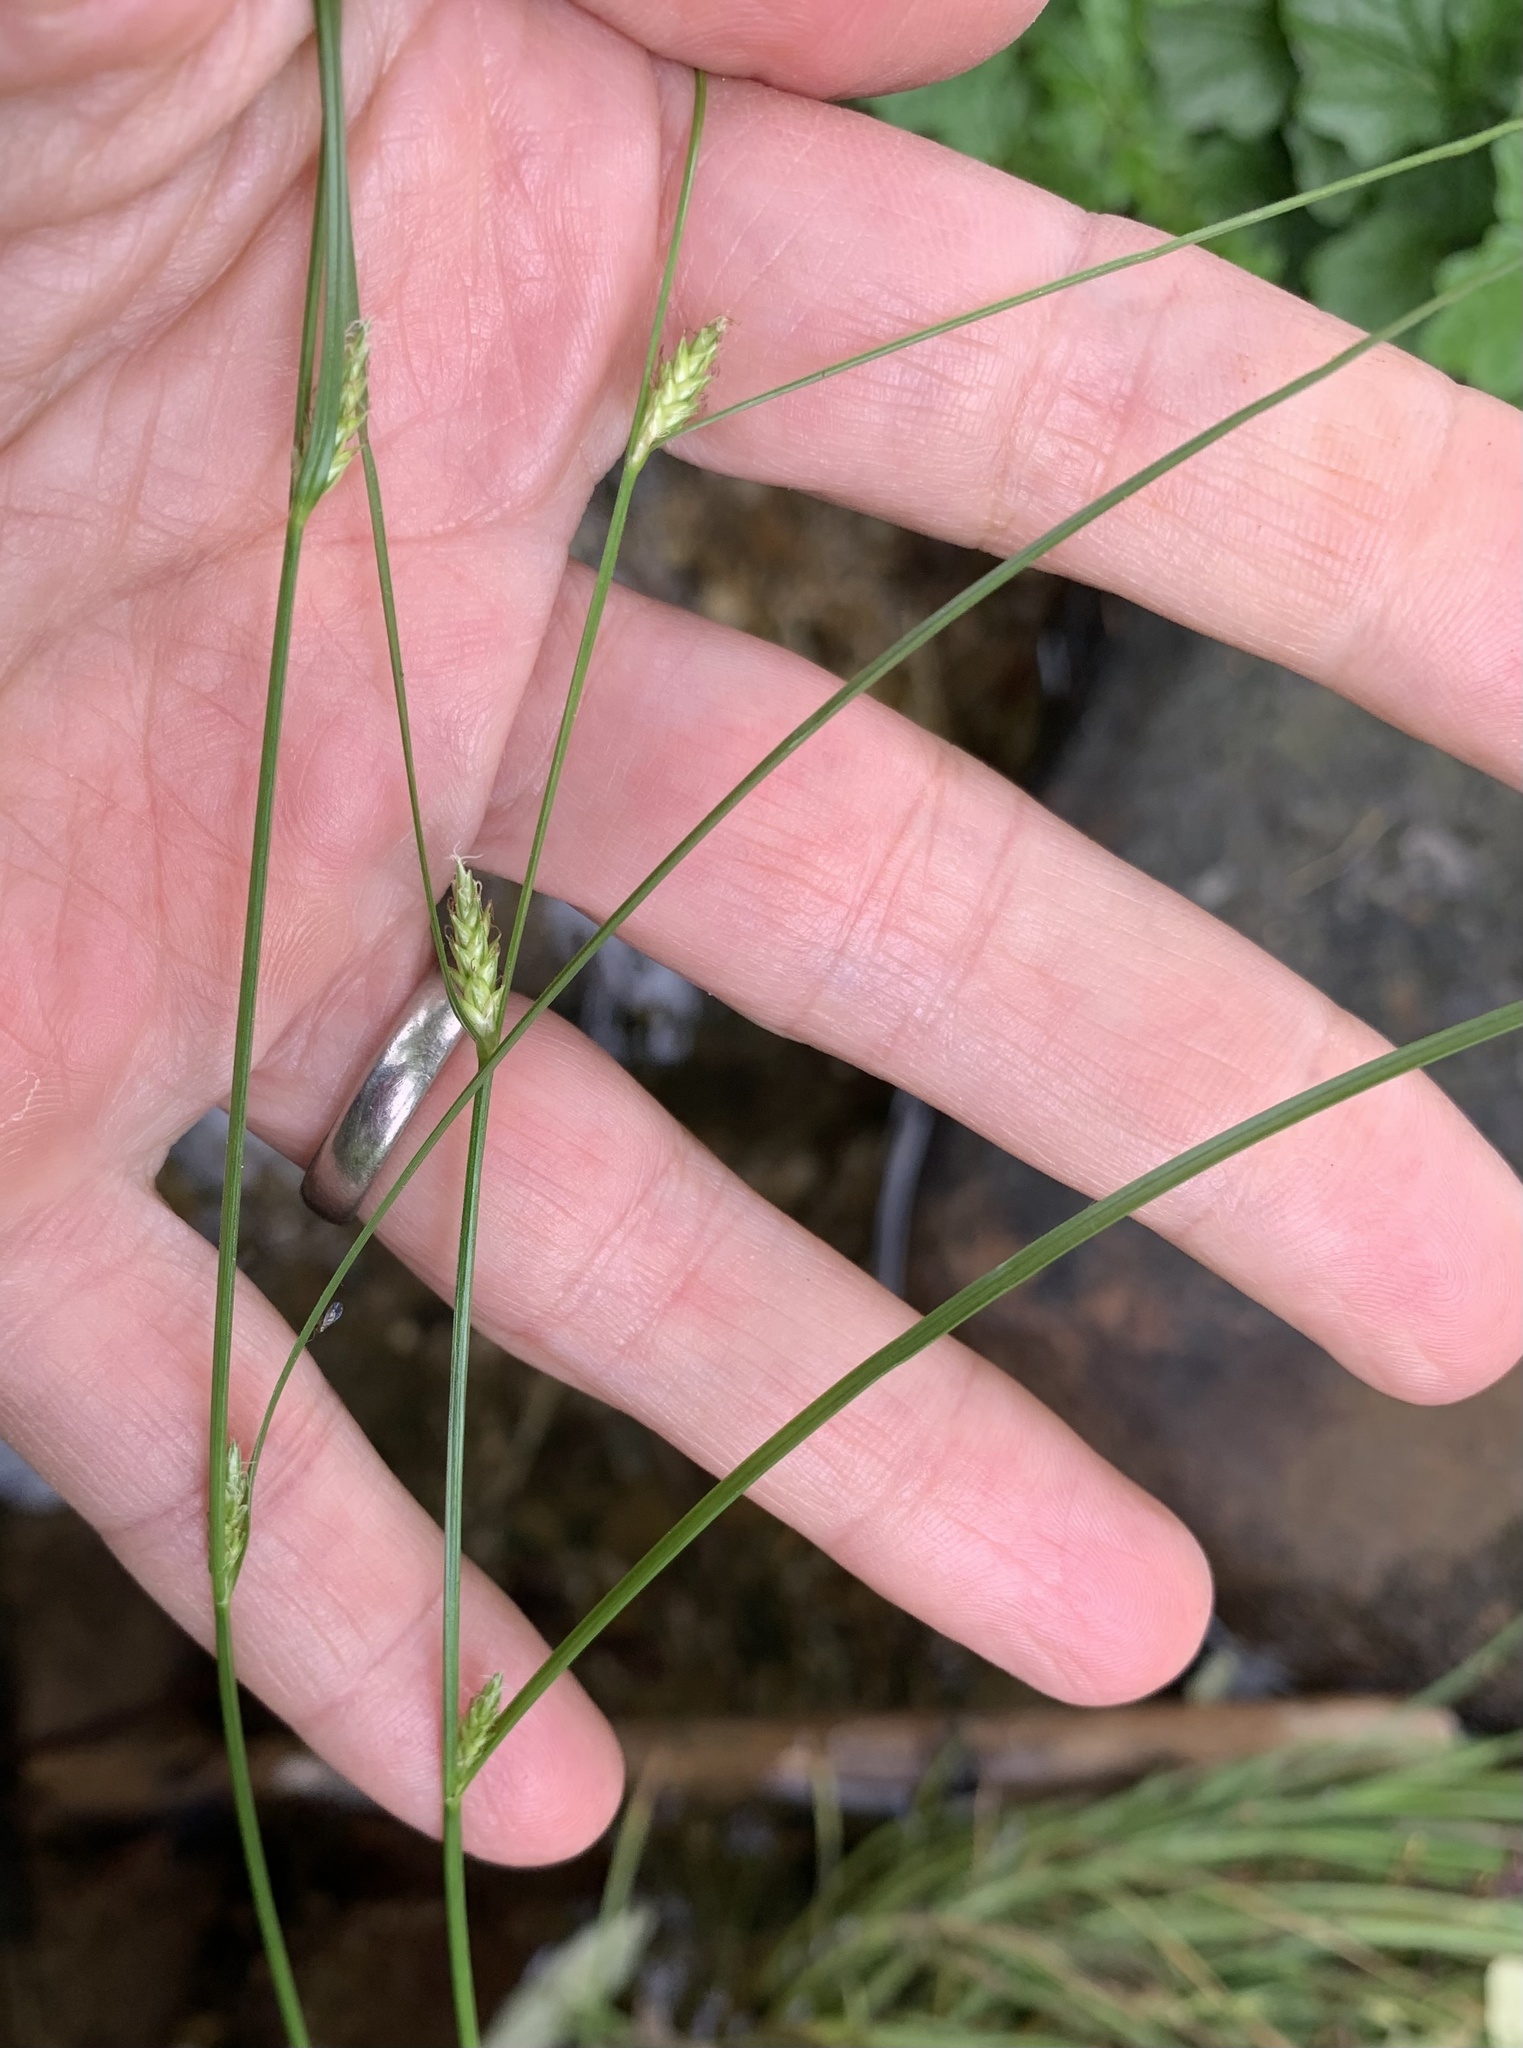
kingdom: Plantae
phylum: Tracheophyta
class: Liliopsida
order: Poales
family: Cyperaceae
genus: Carex
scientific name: Carex remota
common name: Remote sedge
